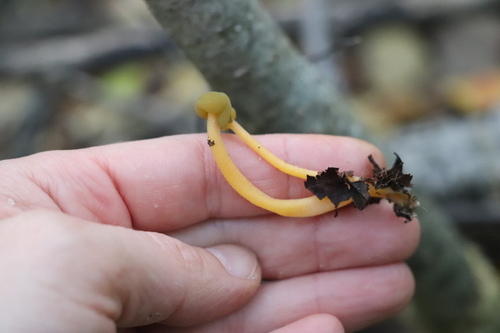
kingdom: Fungi
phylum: Ascomycota
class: Leotiomycetes
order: Leotiales
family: Leotiaceae
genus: Leotia
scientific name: Leotia lubrica
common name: Jellybaby
